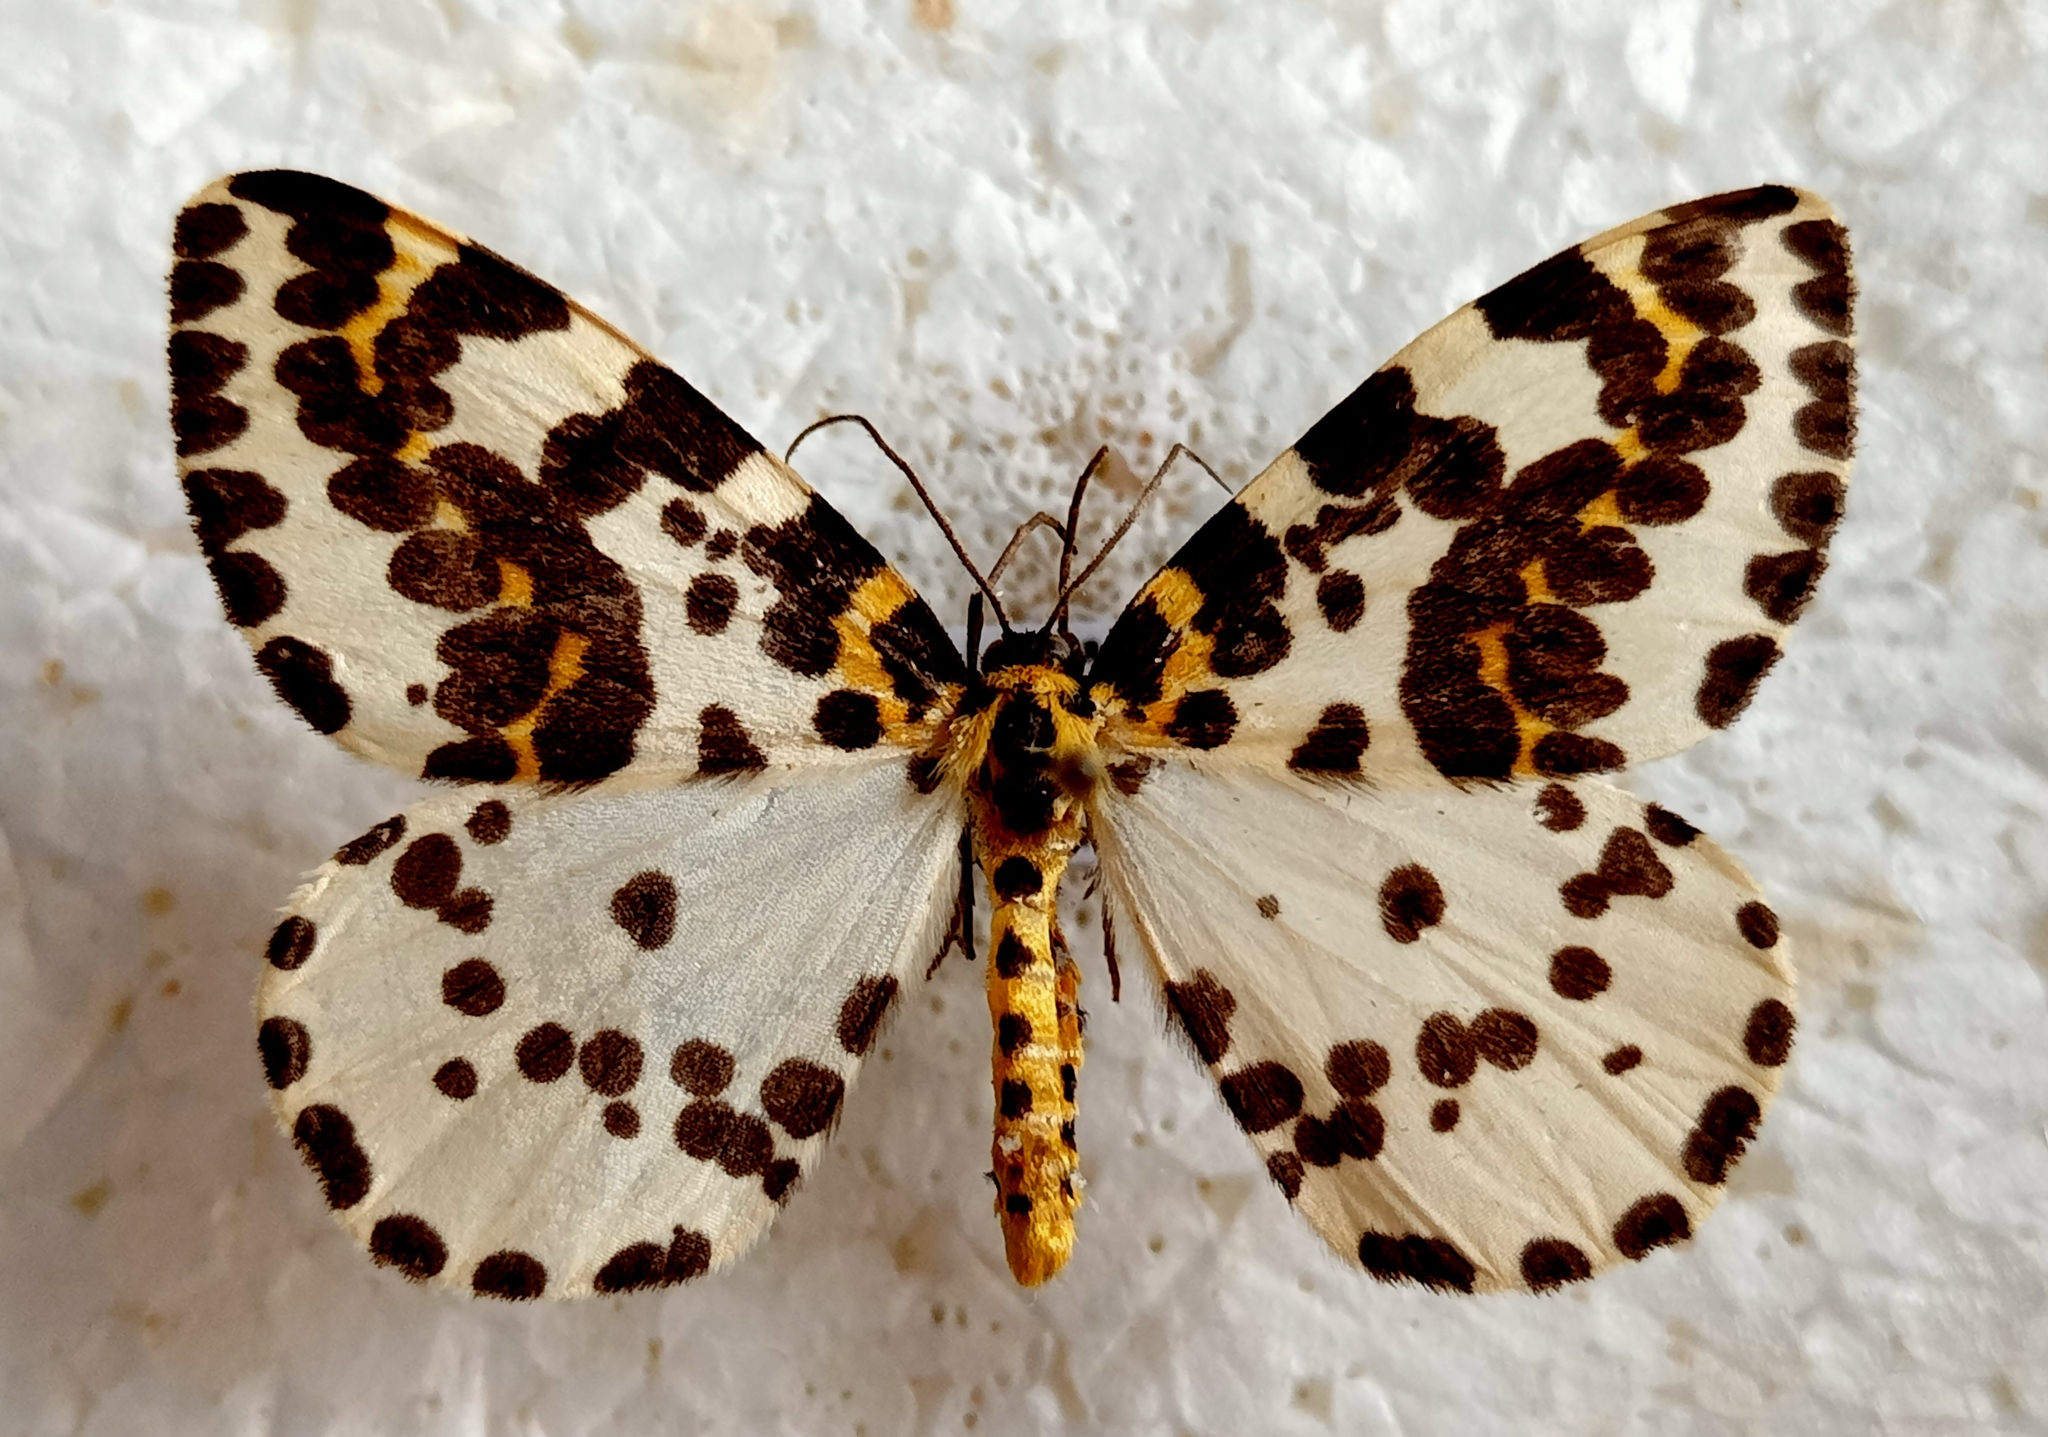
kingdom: Animalia
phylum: Arthropoda
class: Insecta
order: Lepidoptera
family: Geometridae
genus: Abraxas
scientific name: Abraxas grossulariata
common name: Magpie
